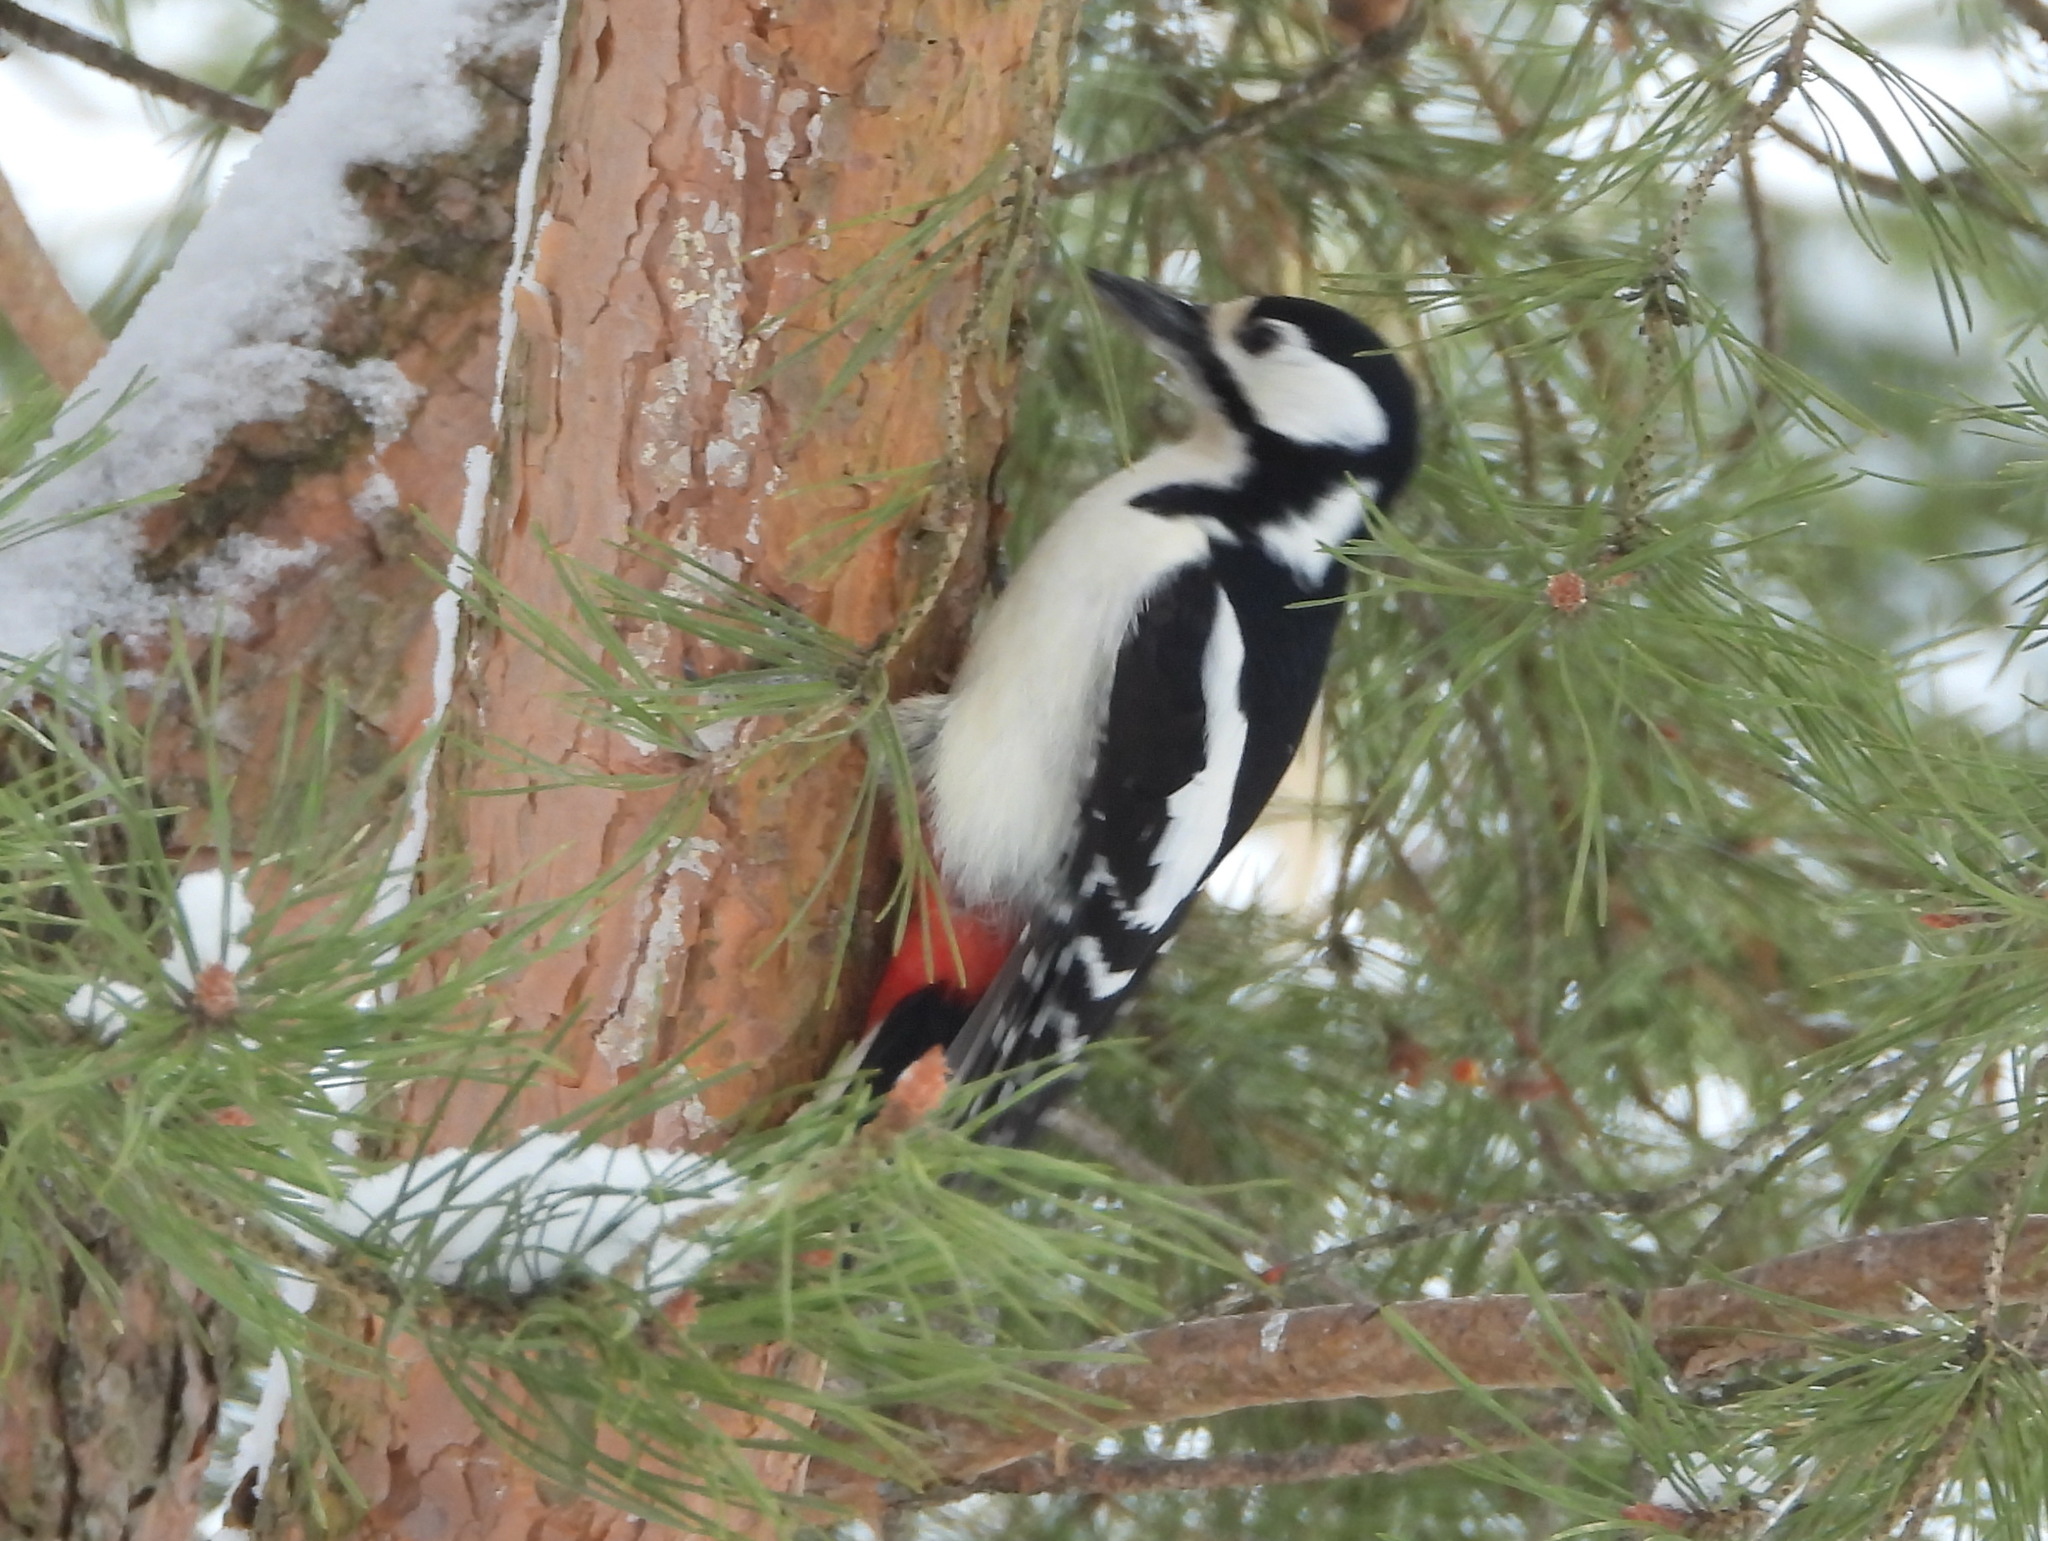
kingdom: Animalia
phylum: Chordata
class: Aves
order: Piciformes
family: Picidae
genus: Dendrocopos
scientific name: Dendrocopos major
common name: Great spotted woodpecker
